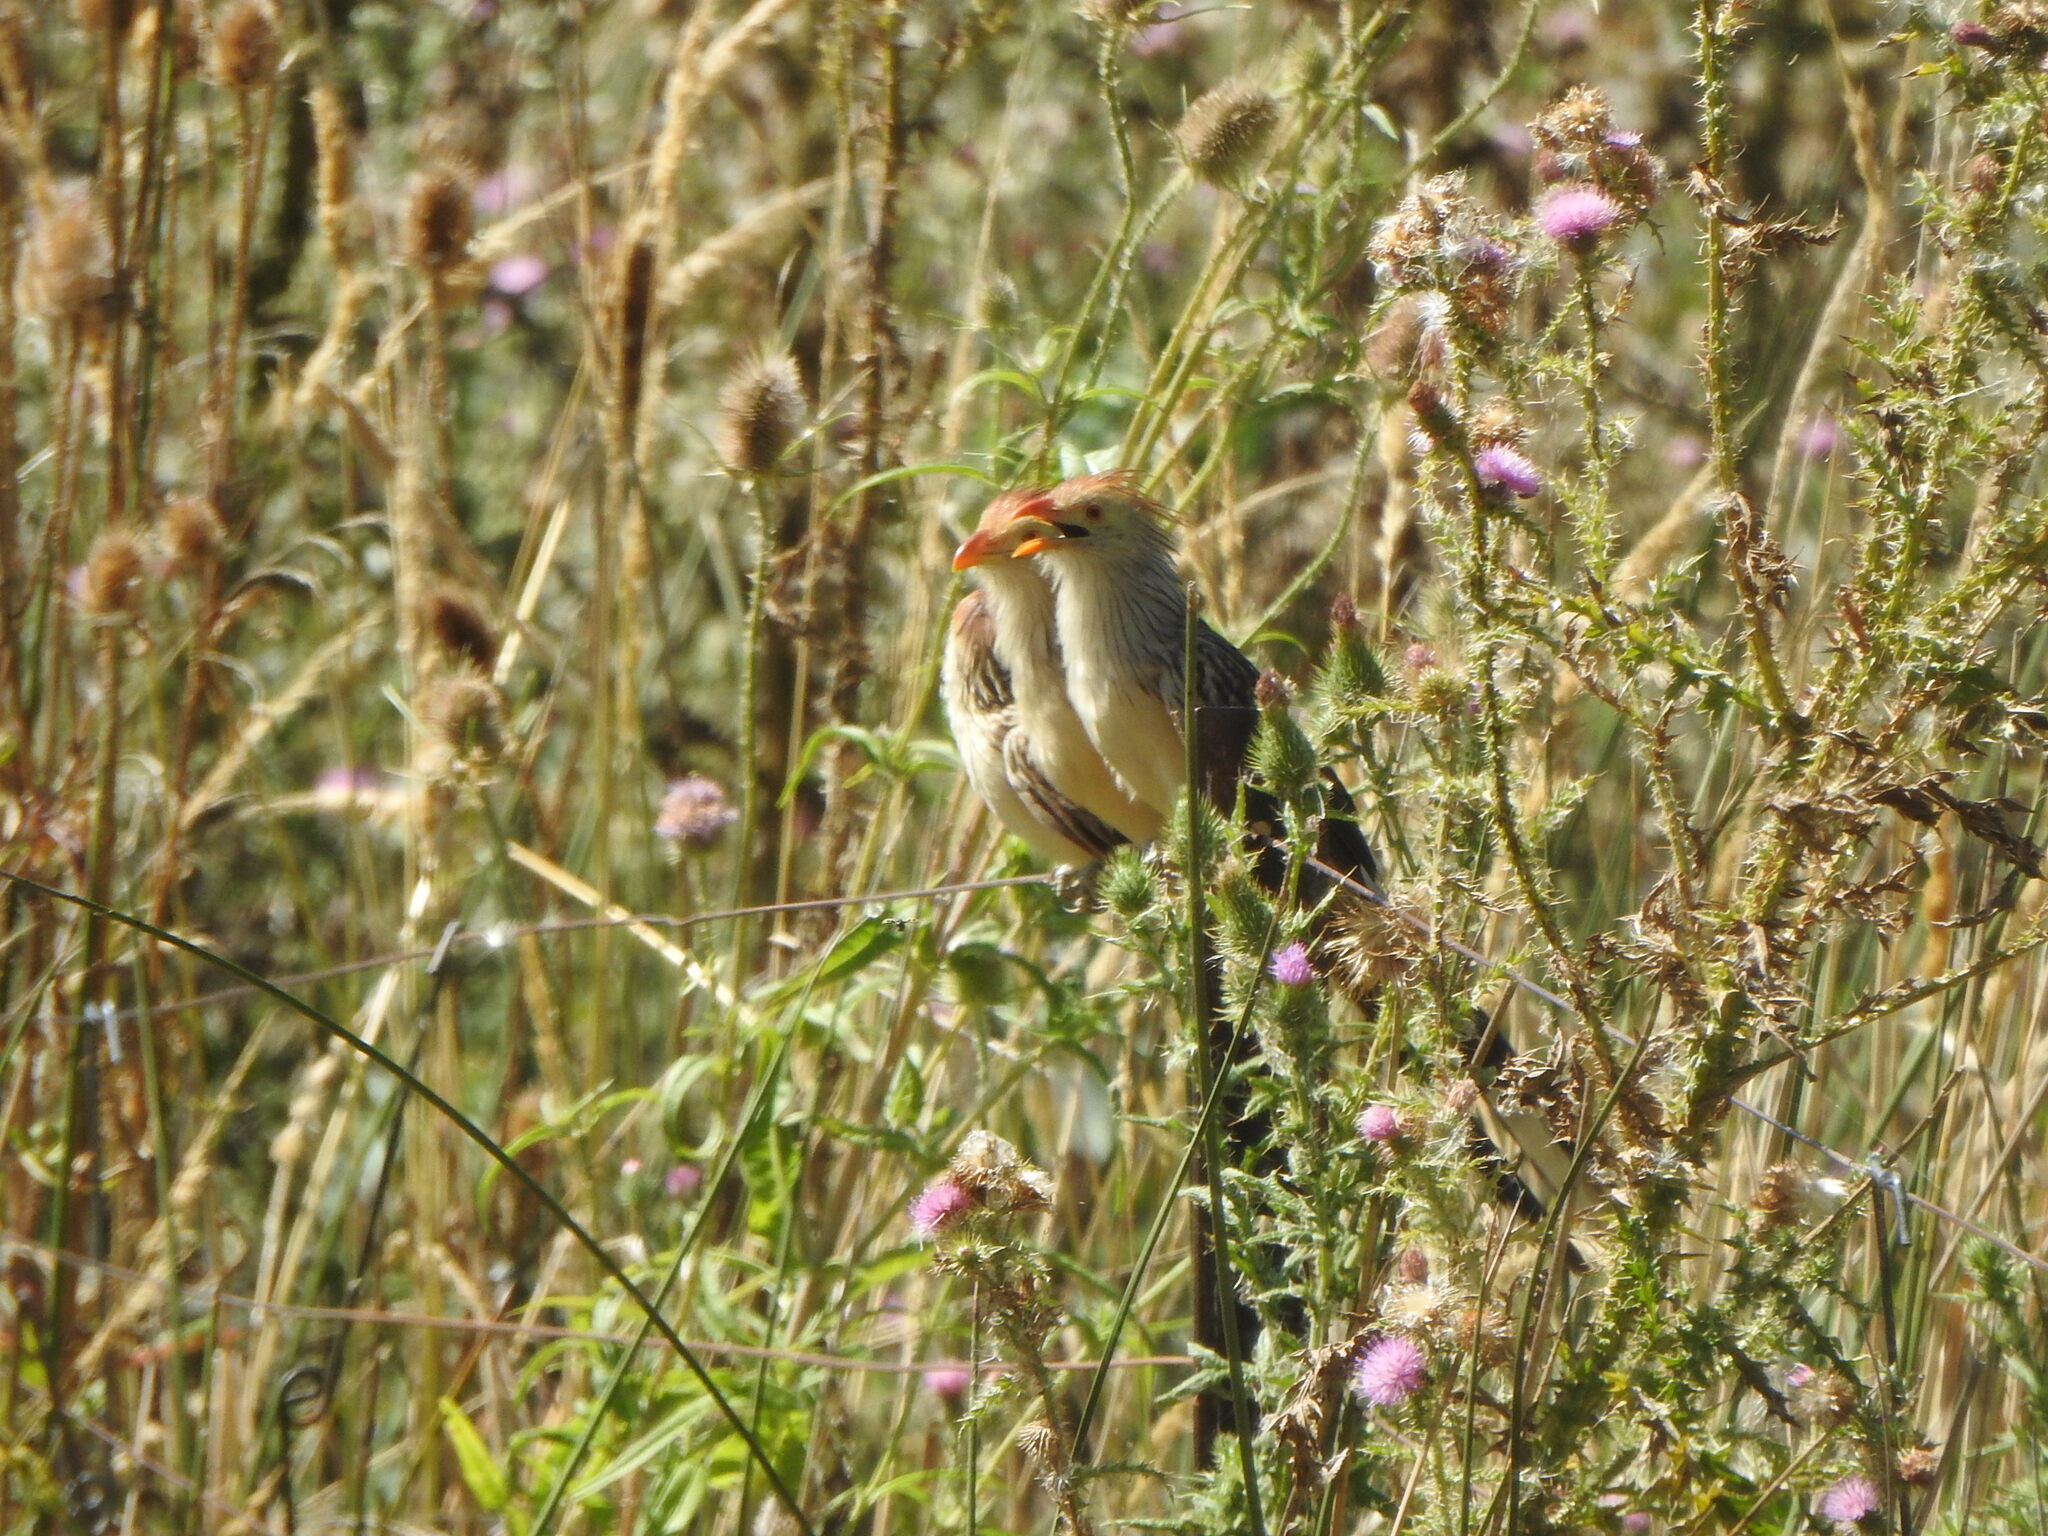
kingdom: Animalia
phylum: Chordata
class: Aves
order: Cuculiformes
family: Cuculidae
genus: Guira
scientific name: Guira guira
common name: Guira cuckoo
